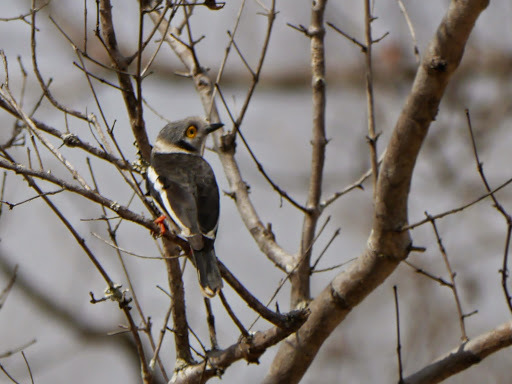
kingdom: Animalia
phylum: Chordata
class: Aves
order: Passeriformes
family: Prionopidae
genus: Prionops
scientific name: Prionops plumatus
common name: White-crested helmetshrike
